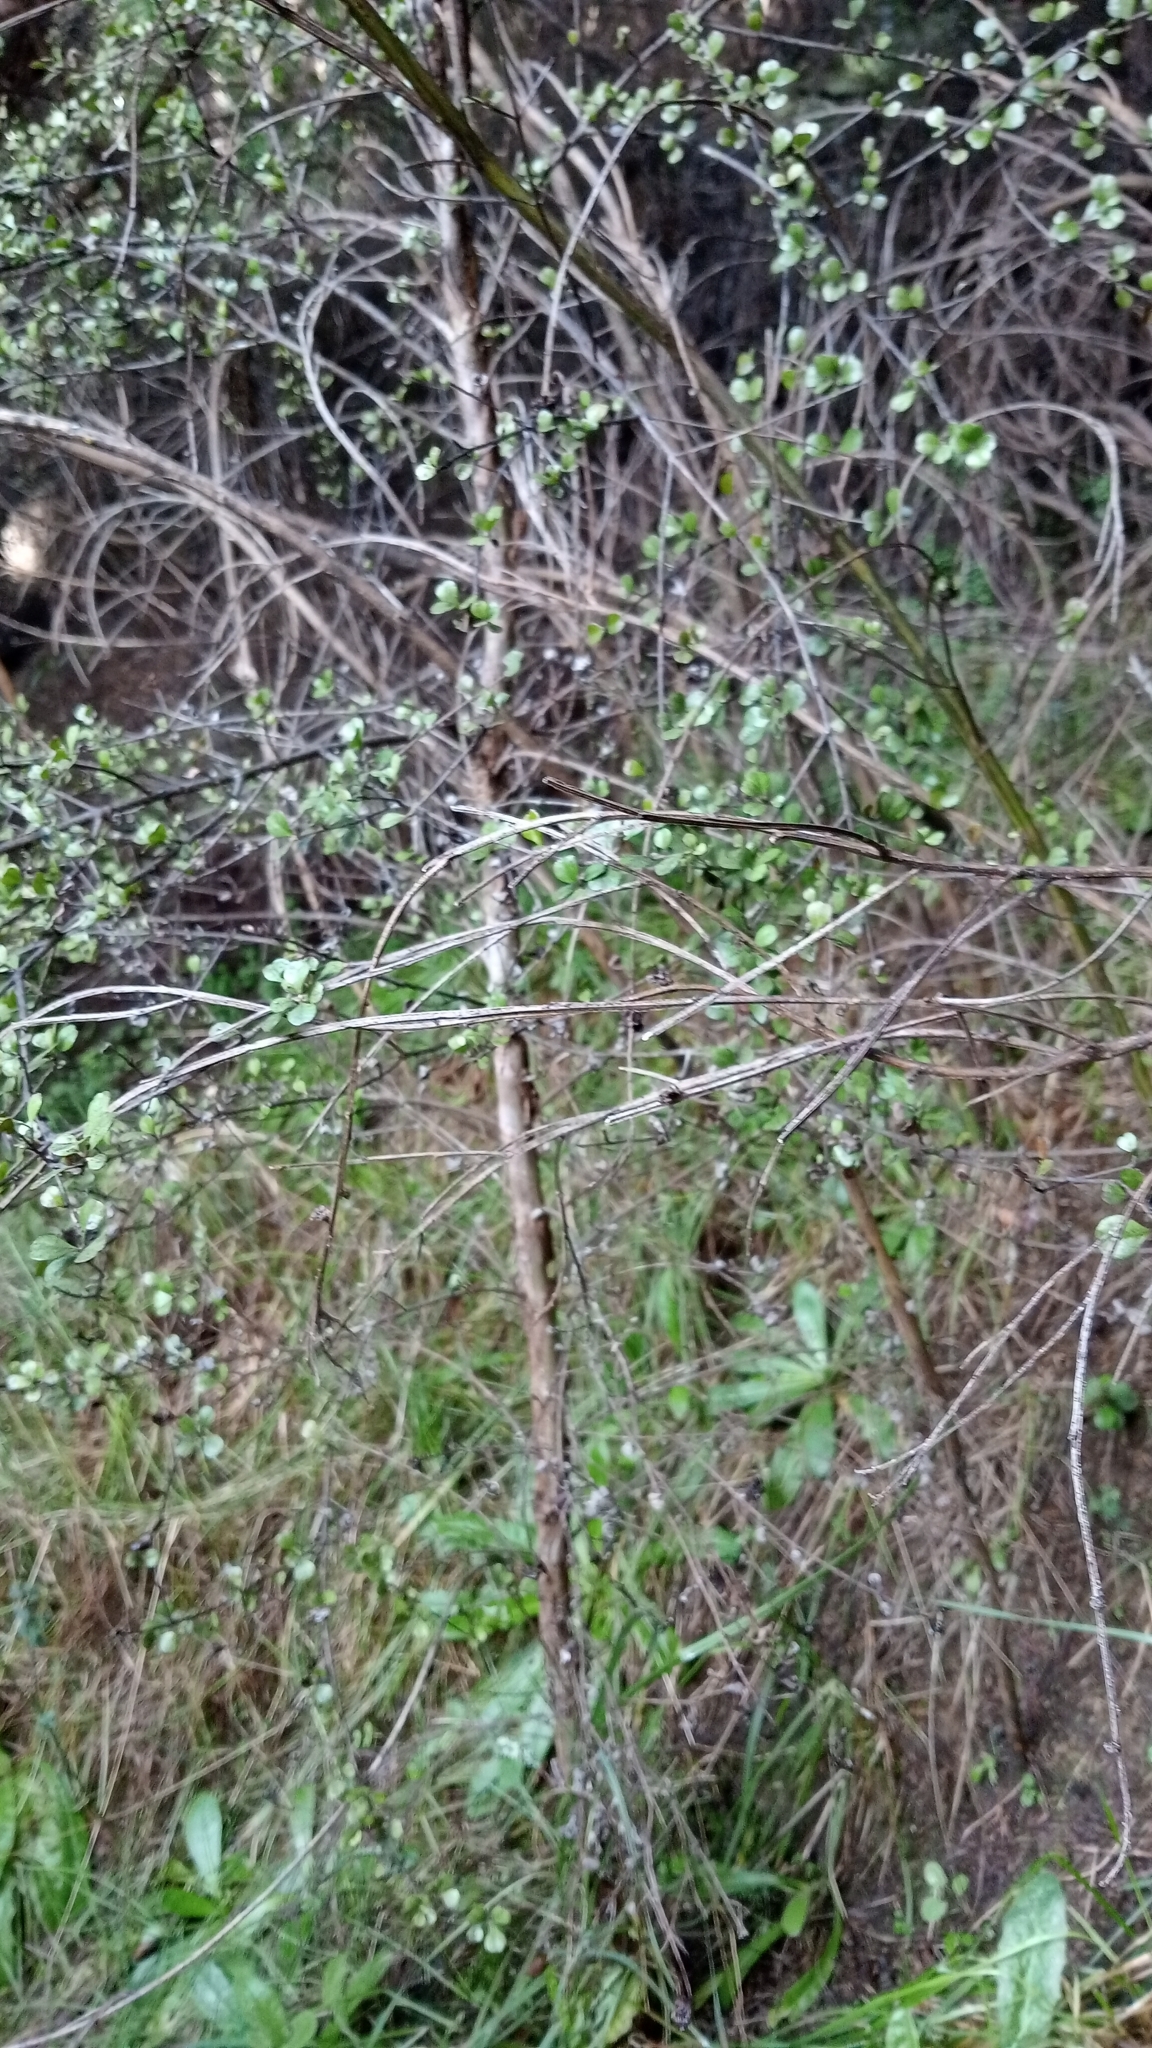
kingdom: Plantae
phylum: Tracheophyta
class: Magnoliopsida
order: Myrtales
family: Myrtaceae
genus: Lophomyrtus
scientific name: Lophomyrtus obcordata
